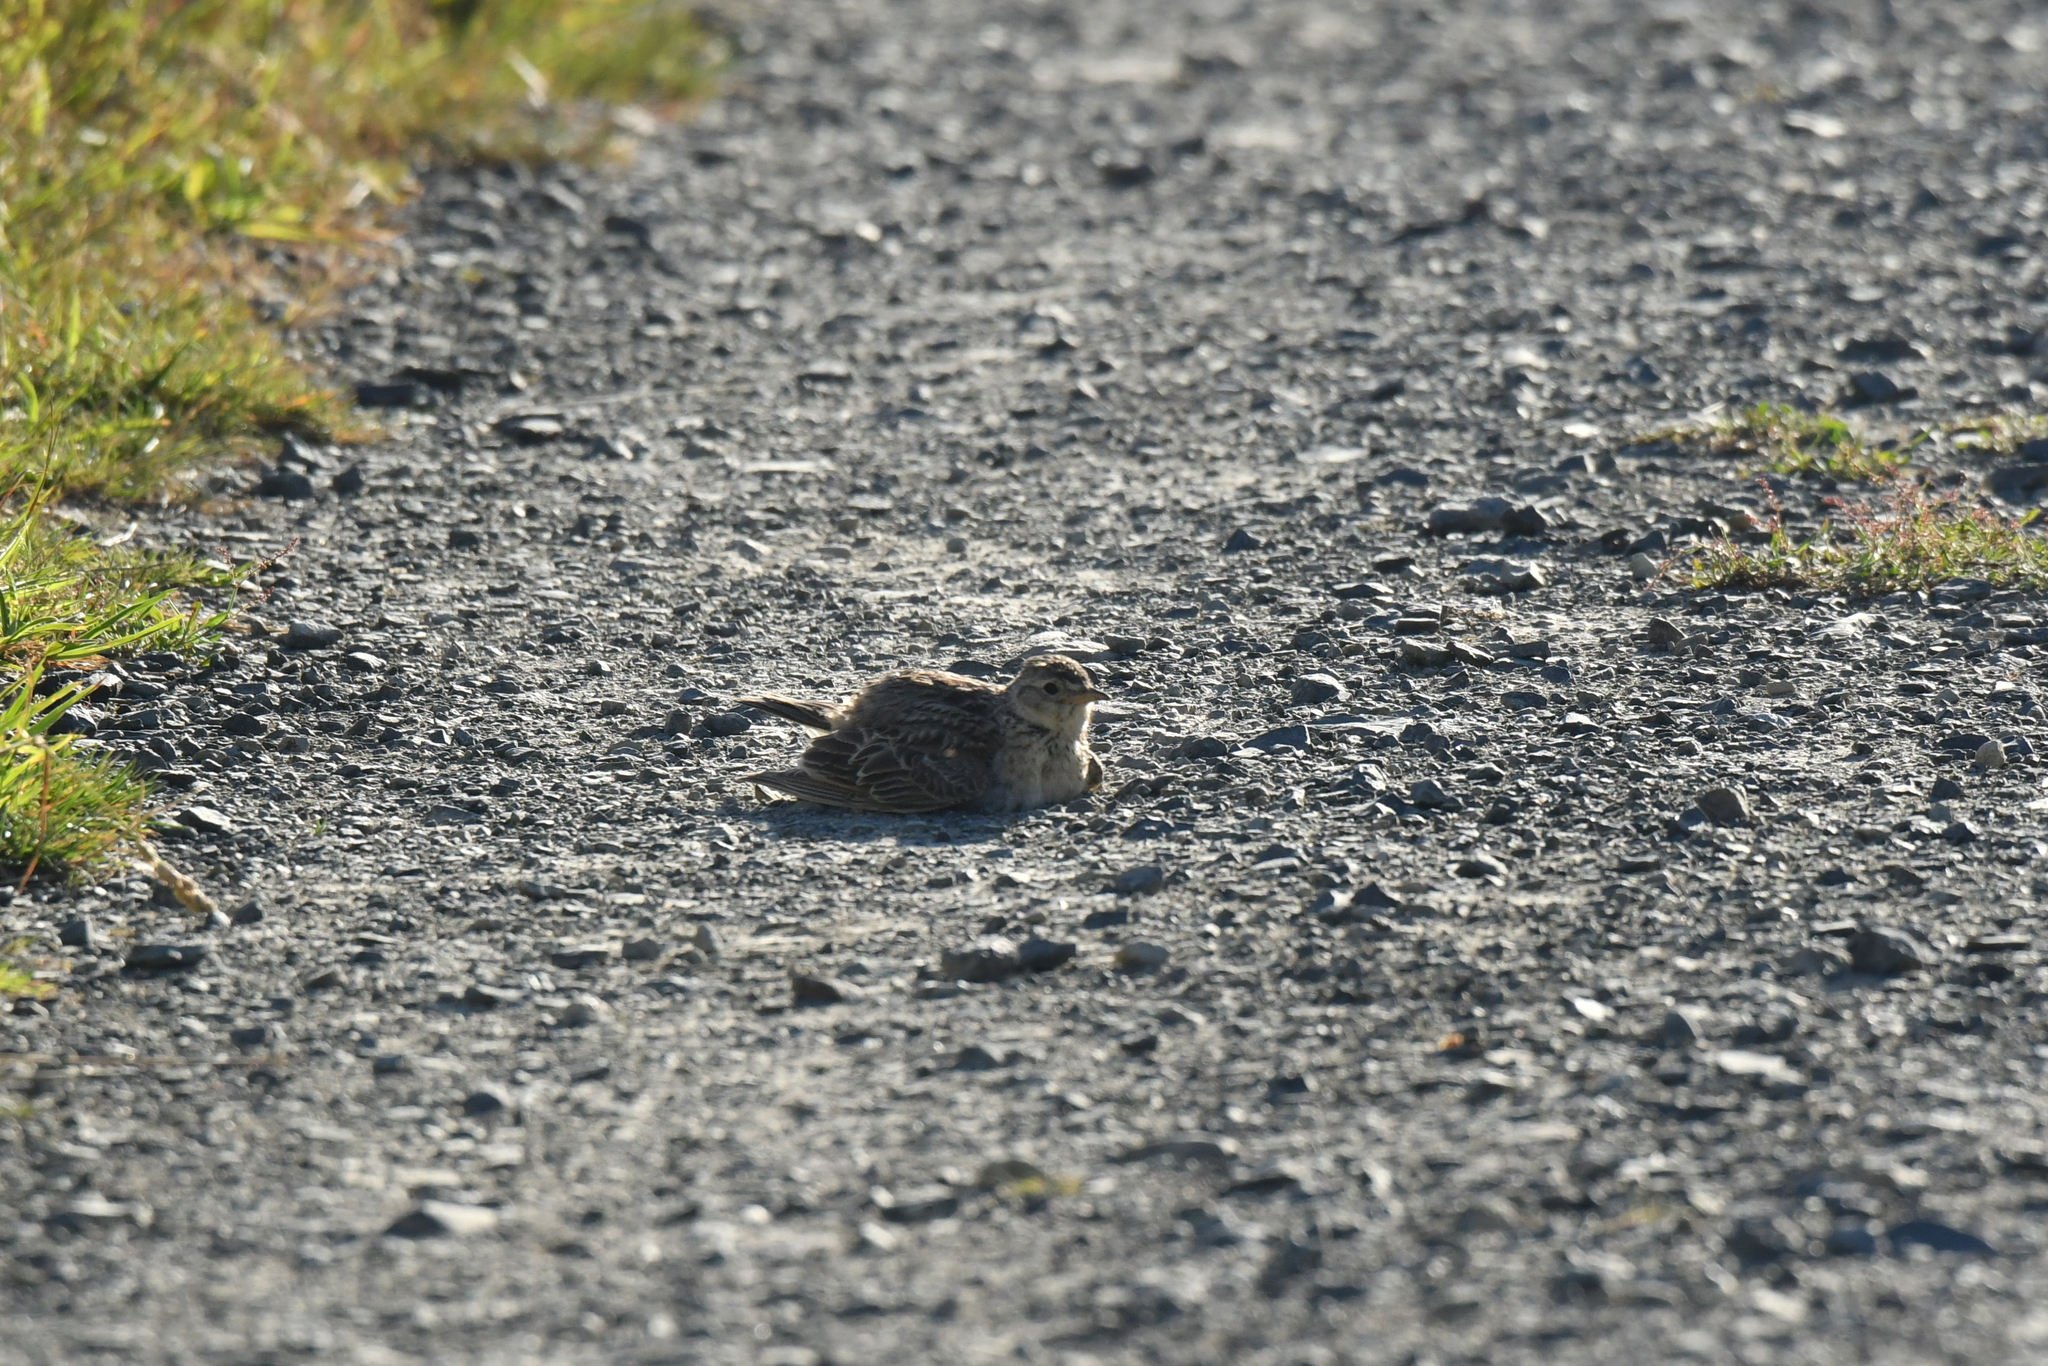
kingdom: Animalia
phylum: Chordata
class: Aves
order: Passeriformes
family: Alaudidae
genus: Alauda
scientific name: Alauda arvensis
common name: Eurasian skylark
